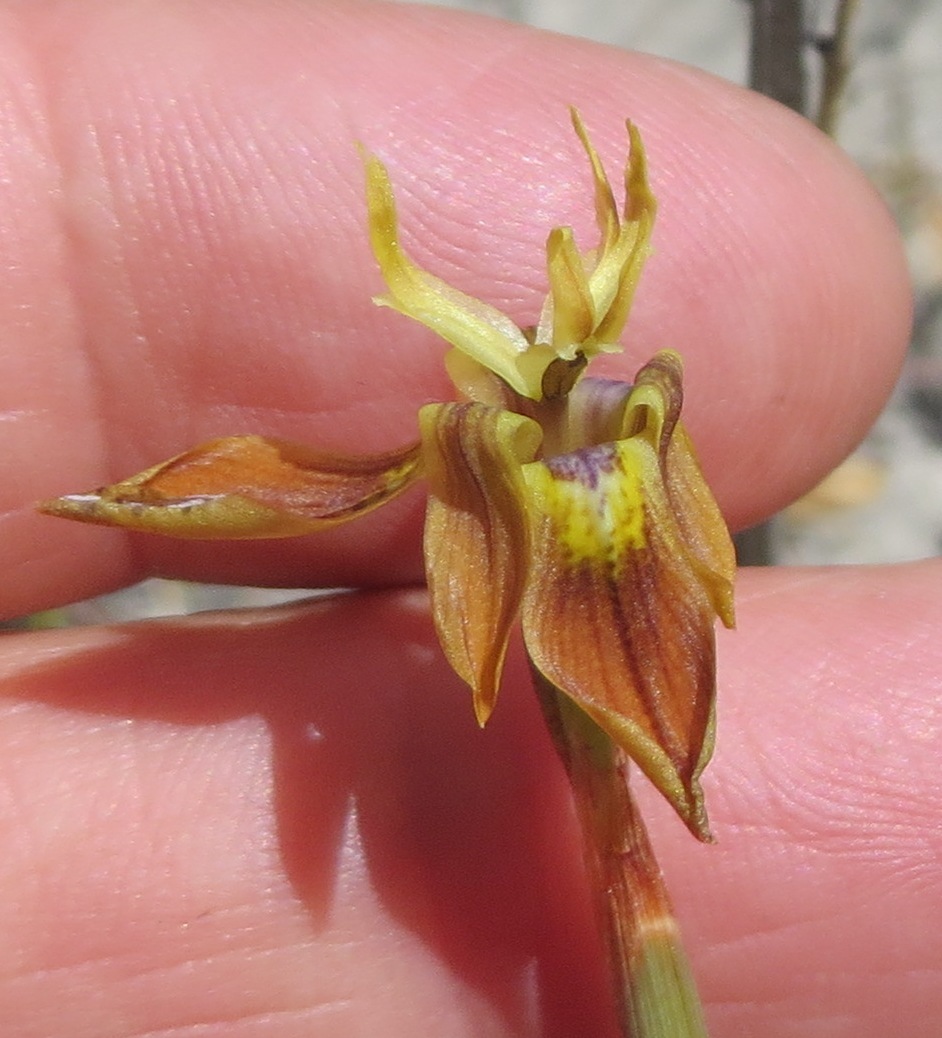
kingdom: Plantae
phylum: Tracheophyta
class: Liliopsida
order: Asparagales
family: Iridaceae
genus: Moraea
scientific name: Moraea inconspicua
